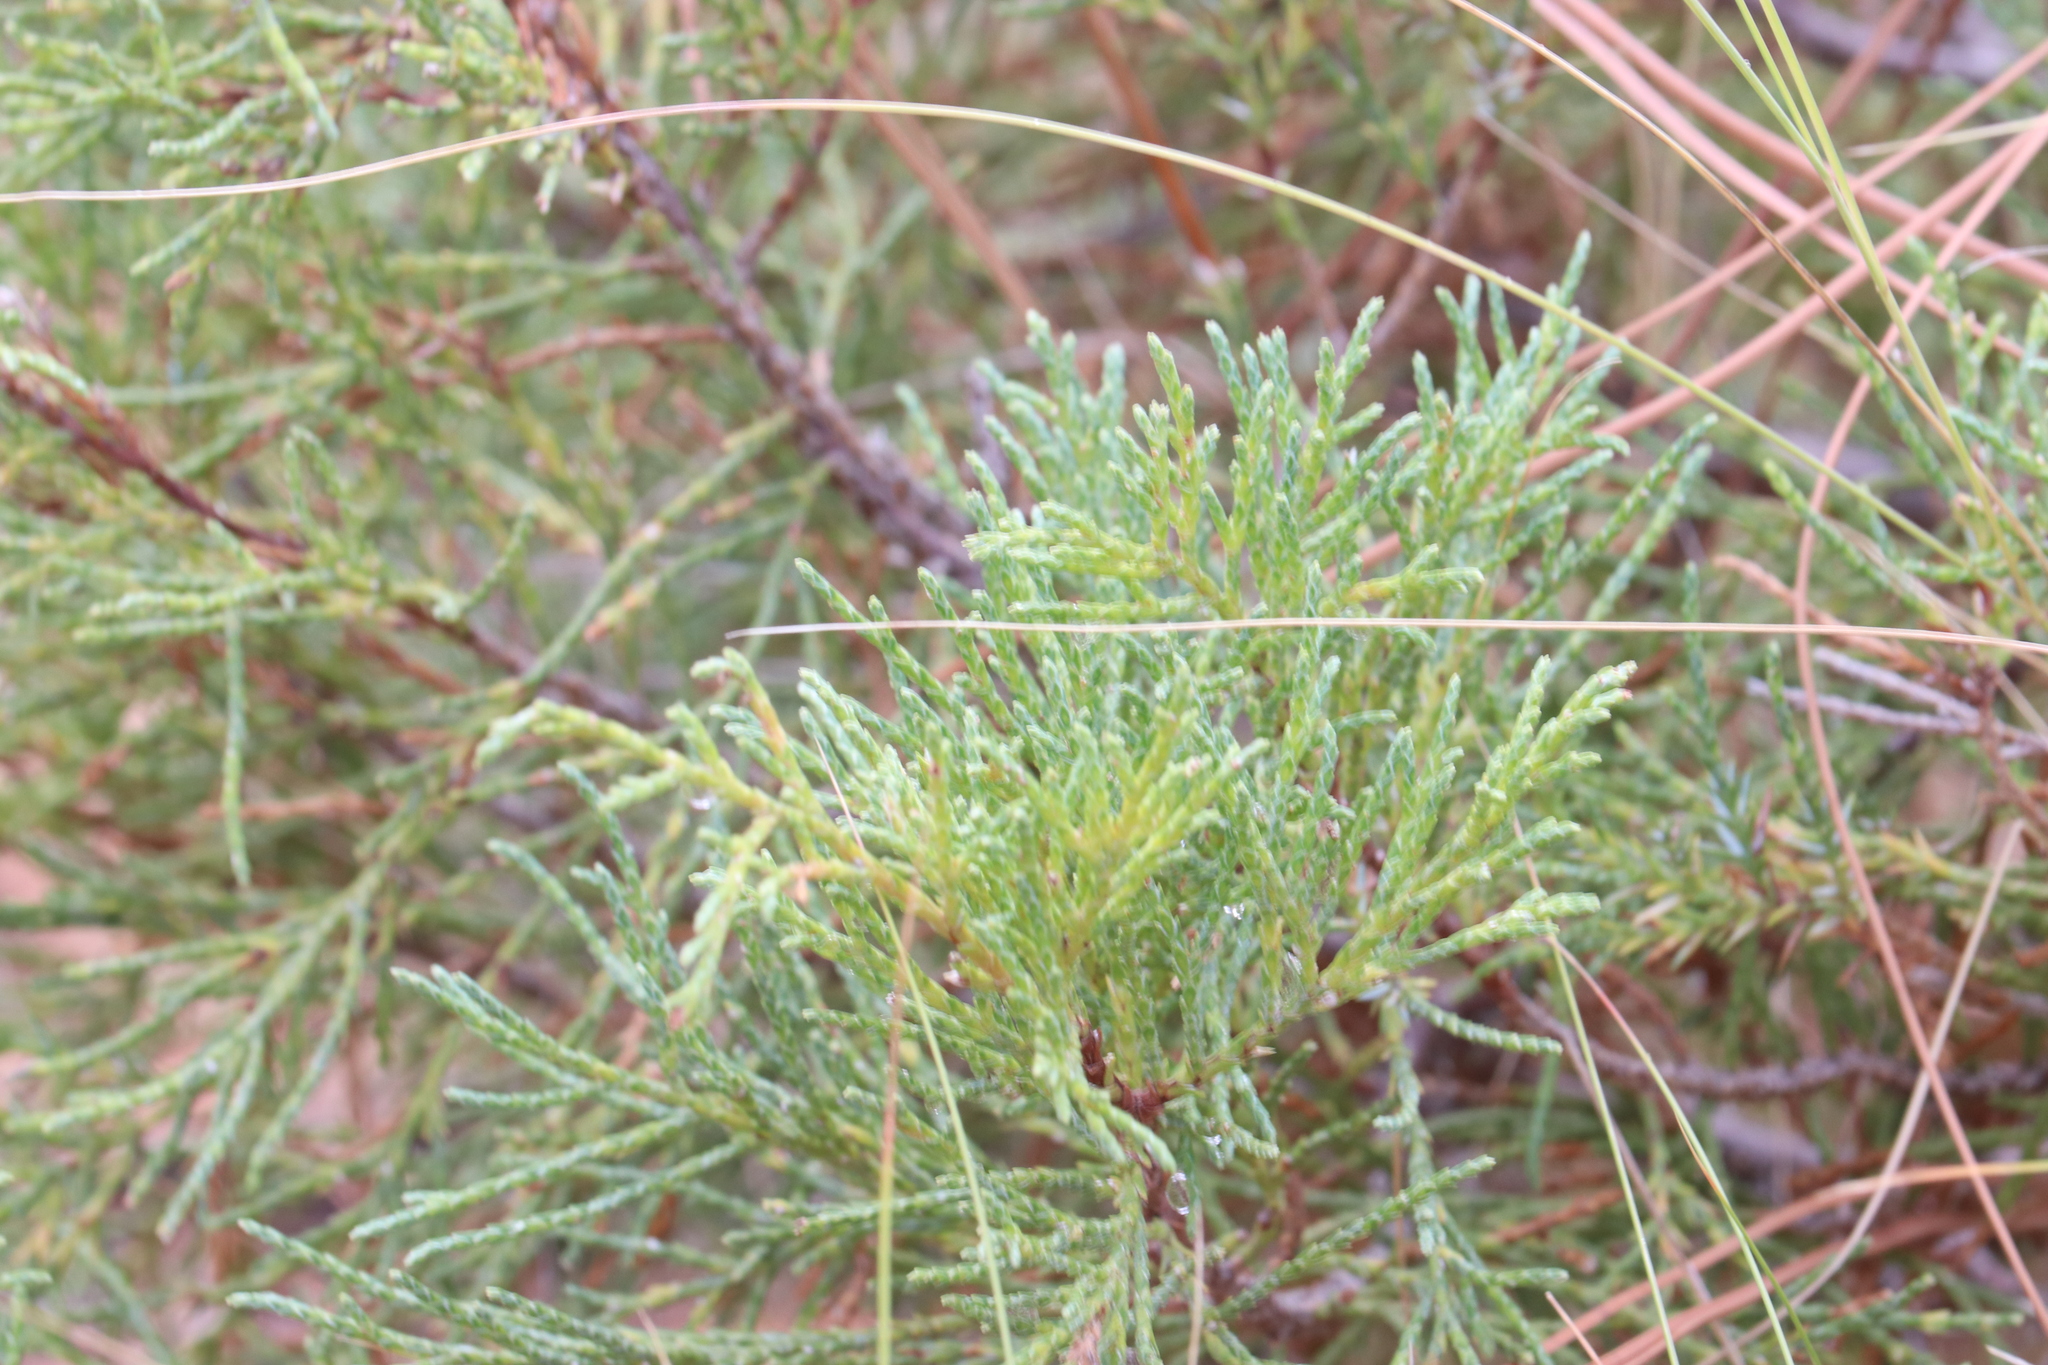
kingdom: Plantae
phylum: Tracheophyta
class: Pinopsida
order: Pinales
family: Cupressaceae
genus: Juniperus
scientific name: Juniperus scopulorum
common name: Rocky mountain juniper
